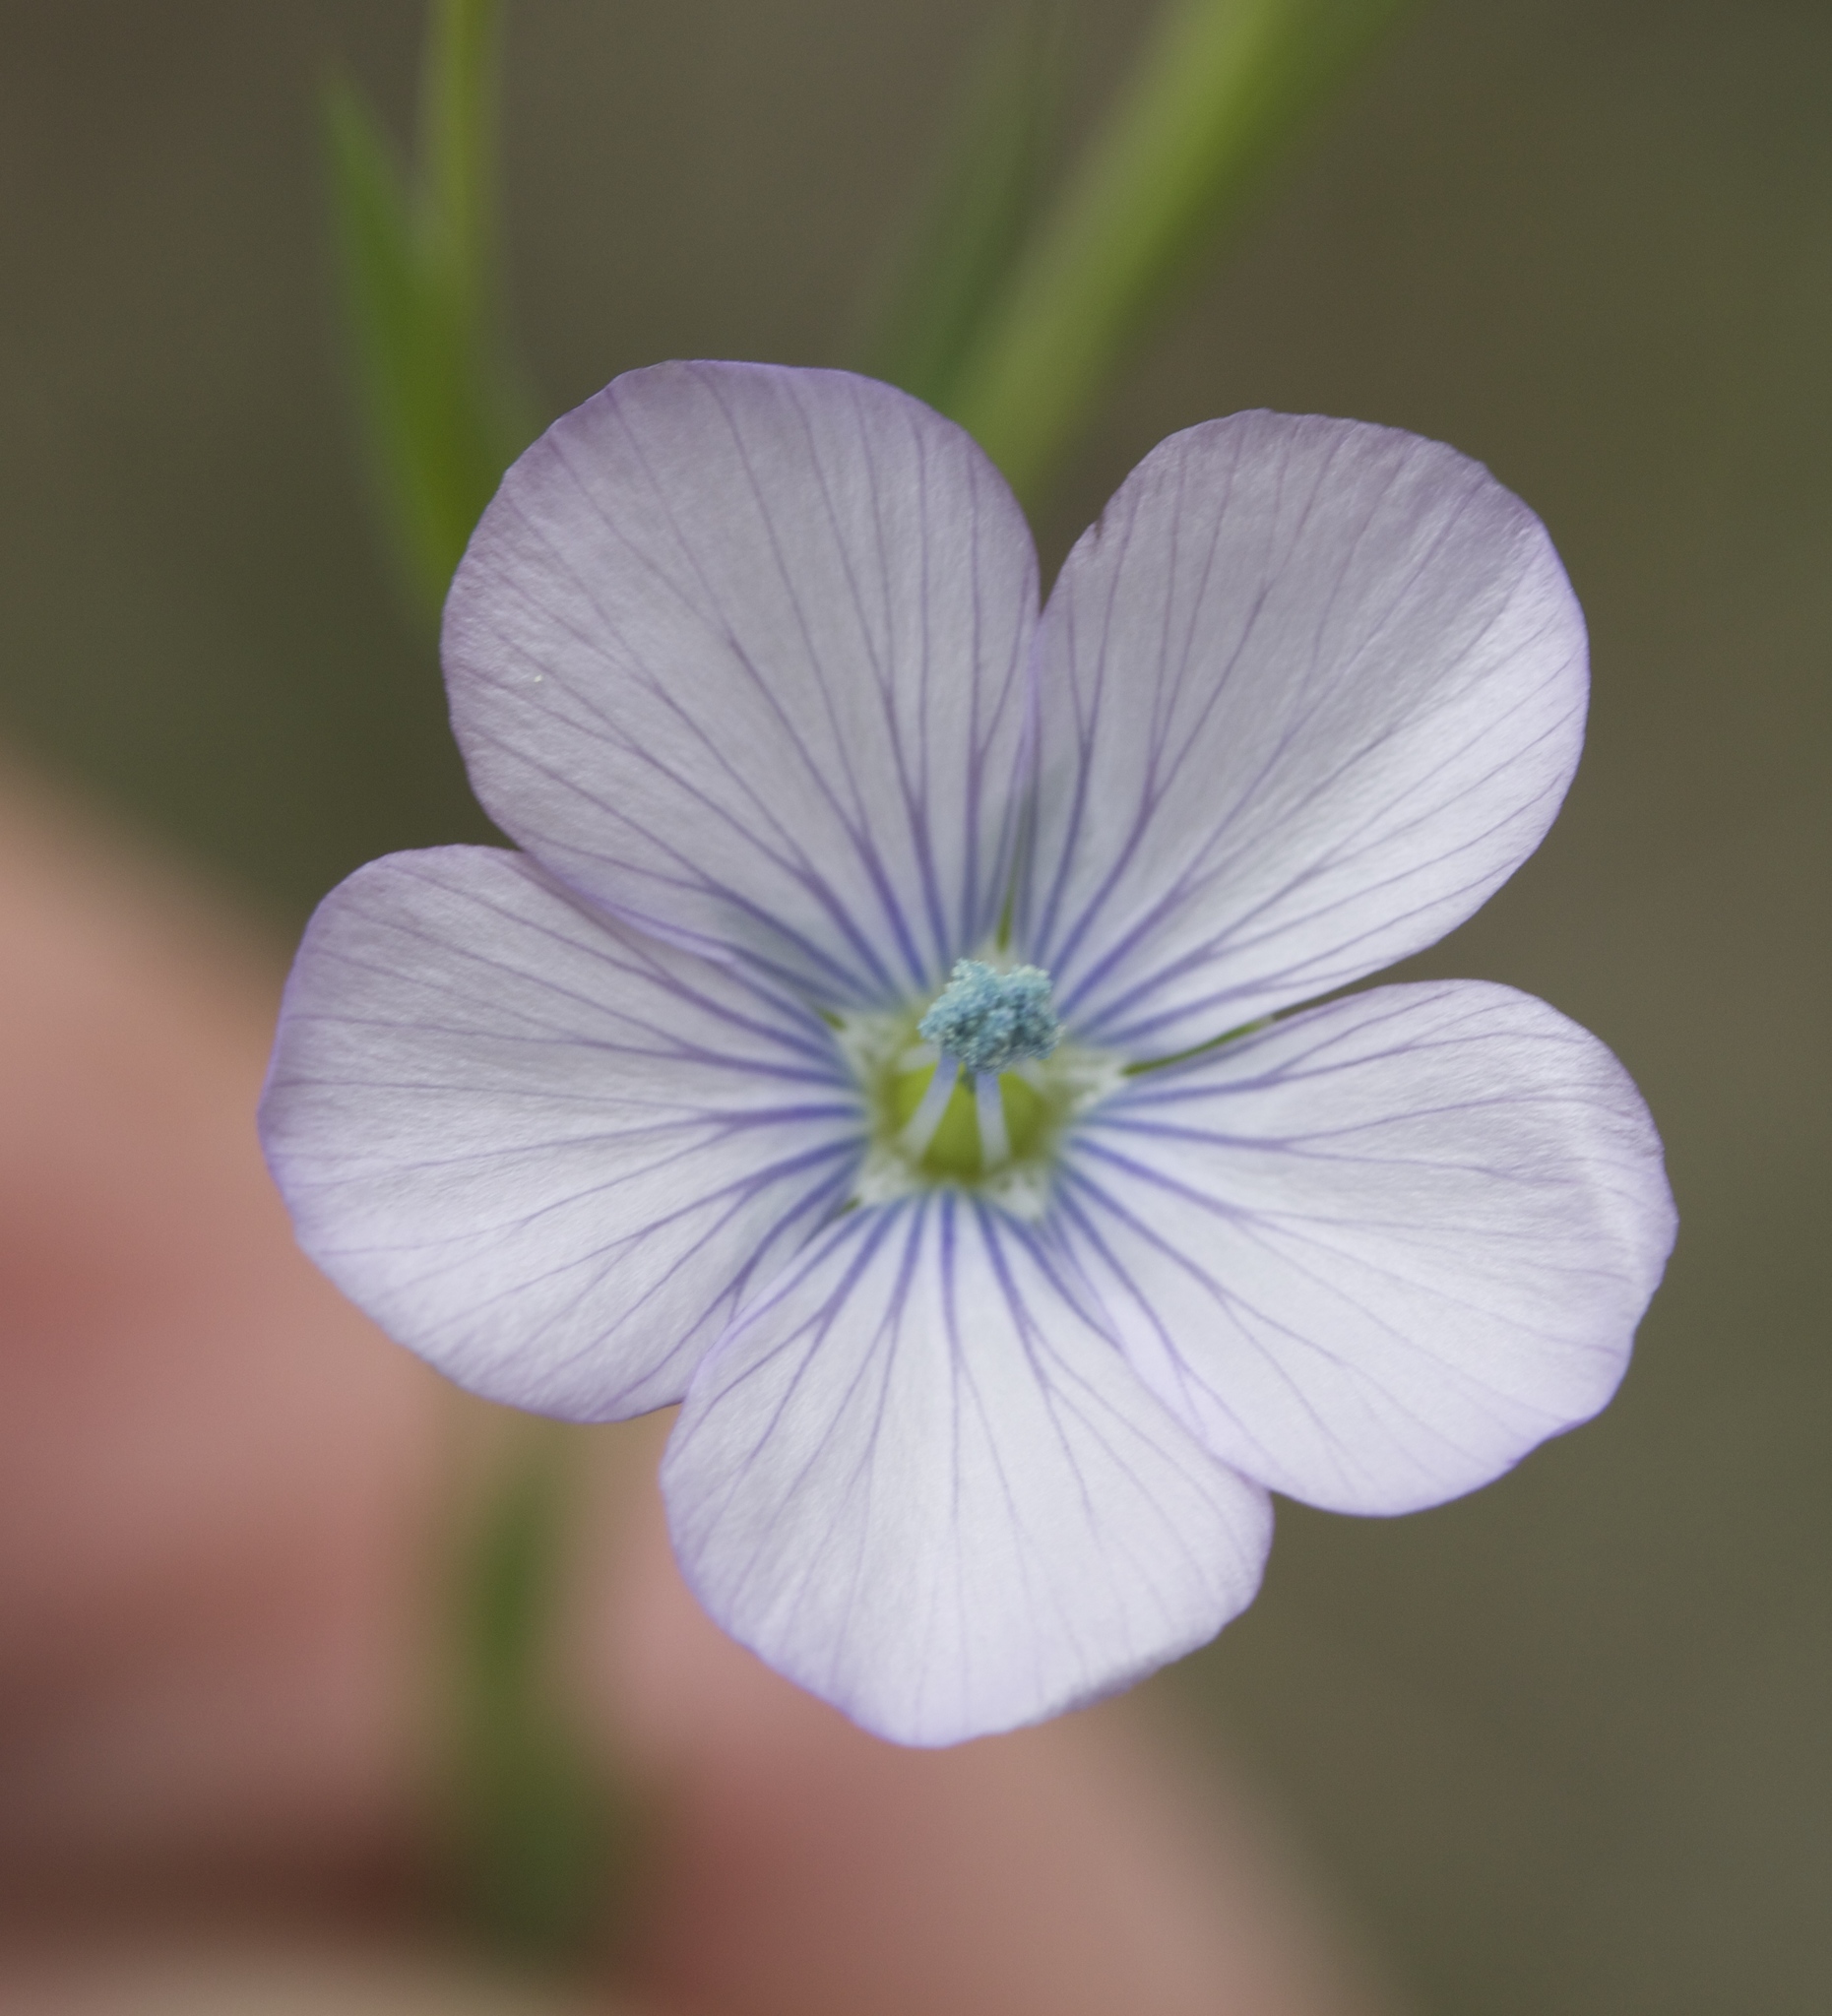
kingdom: Plantae
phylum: Tracheophyta
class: Magnoliopsida
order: Malpighiales
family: Linaceae
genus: Linum
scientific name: Linum bienne
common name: Pale flax
